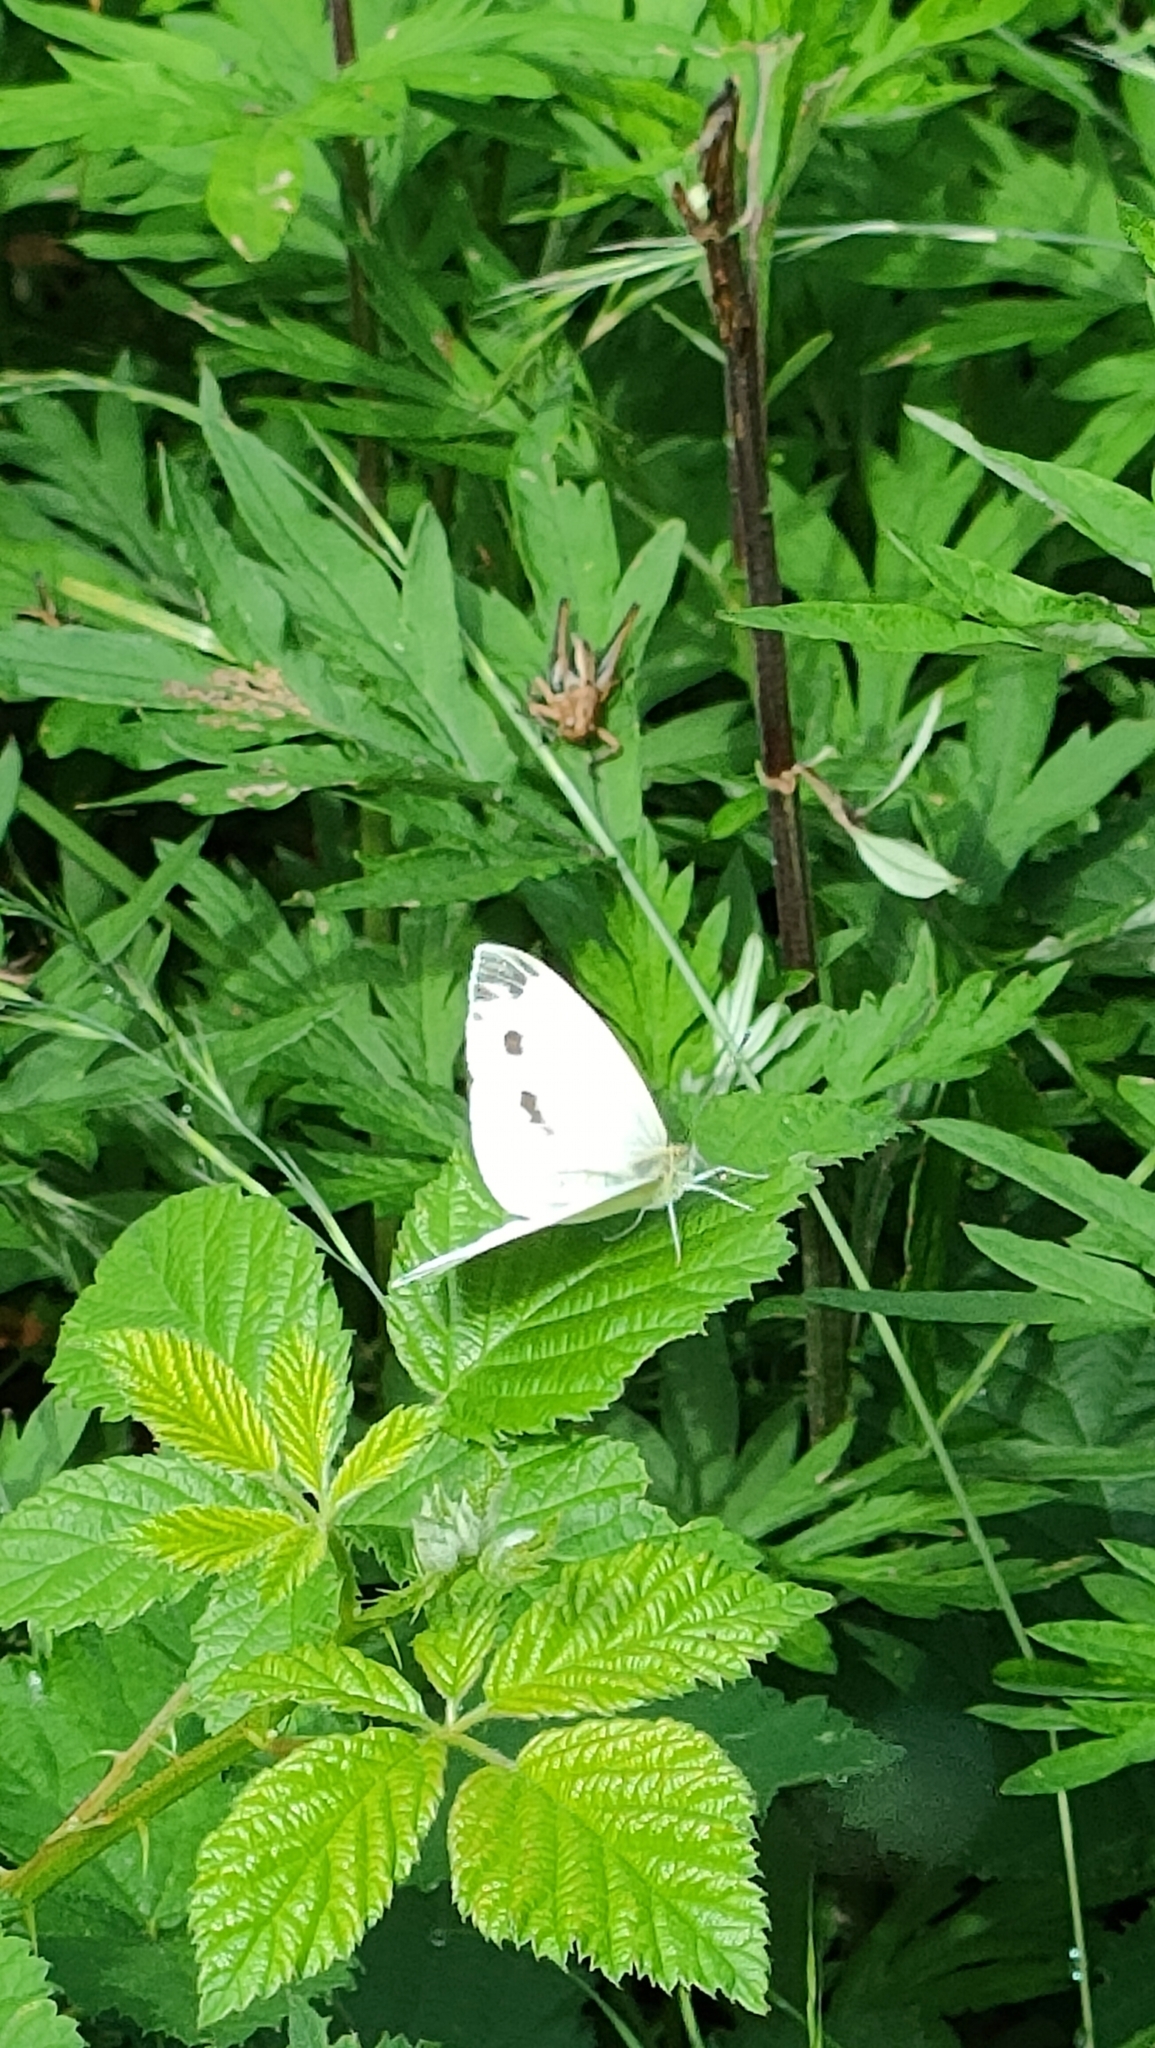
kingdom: Animalia
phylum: Arthropoda
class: Insecta
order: Lepidoptera
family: Pieridae
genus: Pieris
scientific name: Pieris napi
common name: Green-veined white
